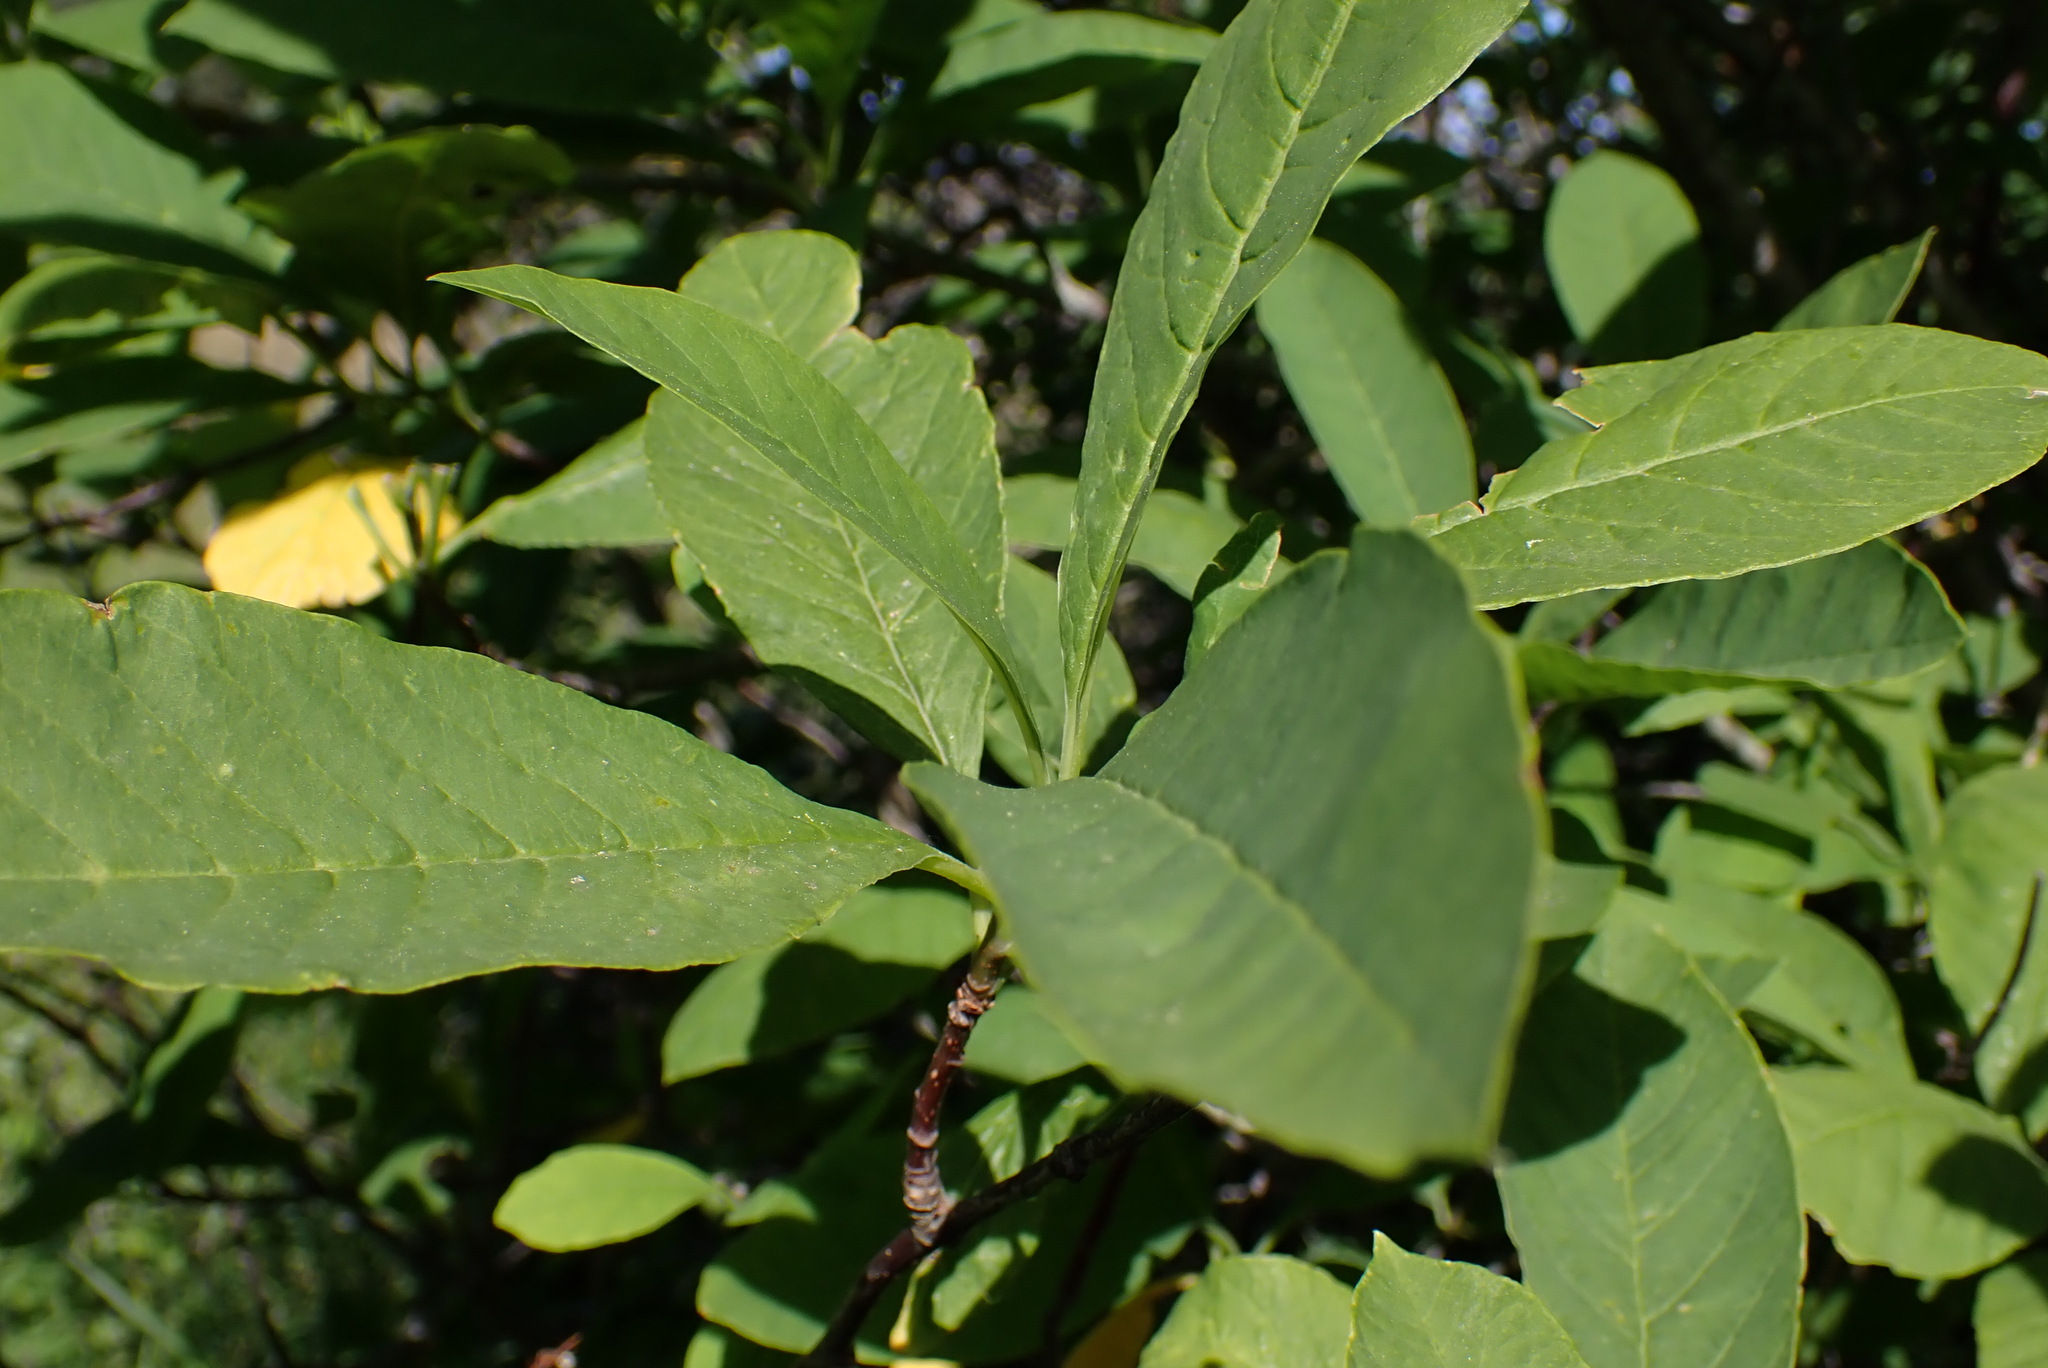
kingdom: Plantae
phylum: Tracheophyta
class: Magnoliopsida
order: Rosales
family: Rosaceae
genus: Oemleria
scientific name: Oemleria cerasiformis
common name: Osoberry
